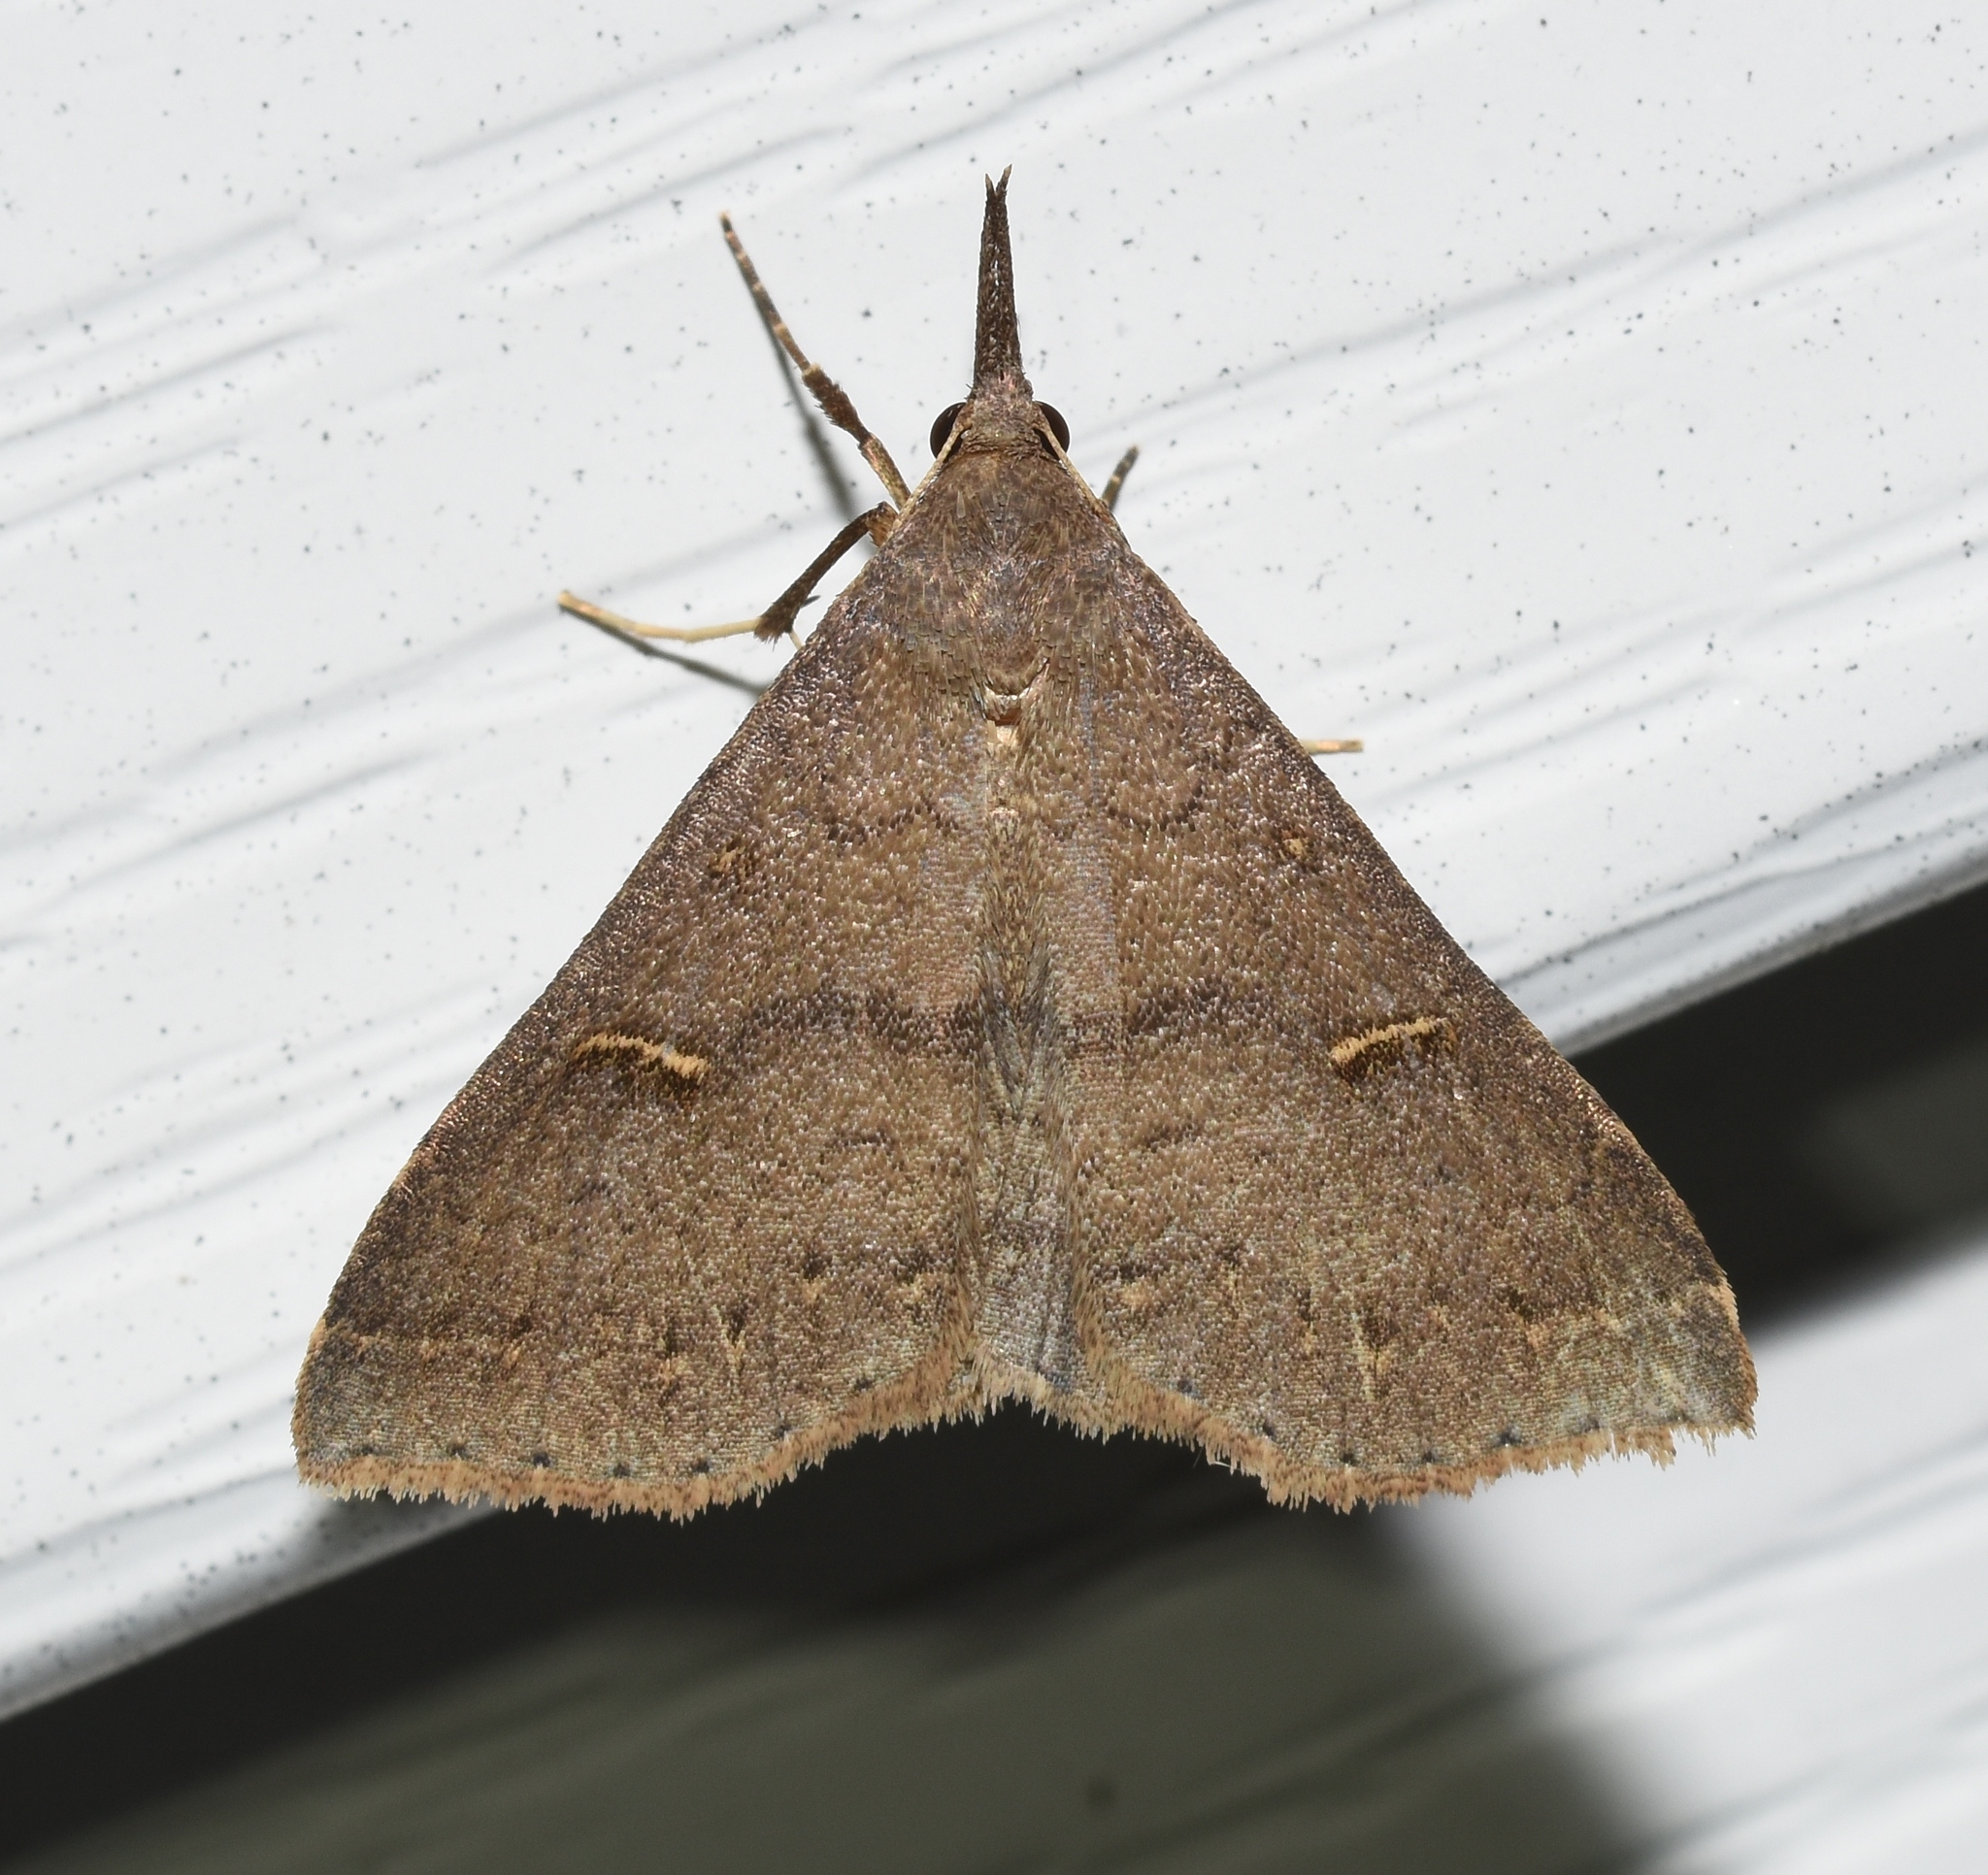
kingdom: Animalia
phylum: Arthropoda
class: Insecta
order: Lepidoptera
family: Erebidae
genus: Renia
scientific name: Renia adspergillus
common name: Speckled renia moth
